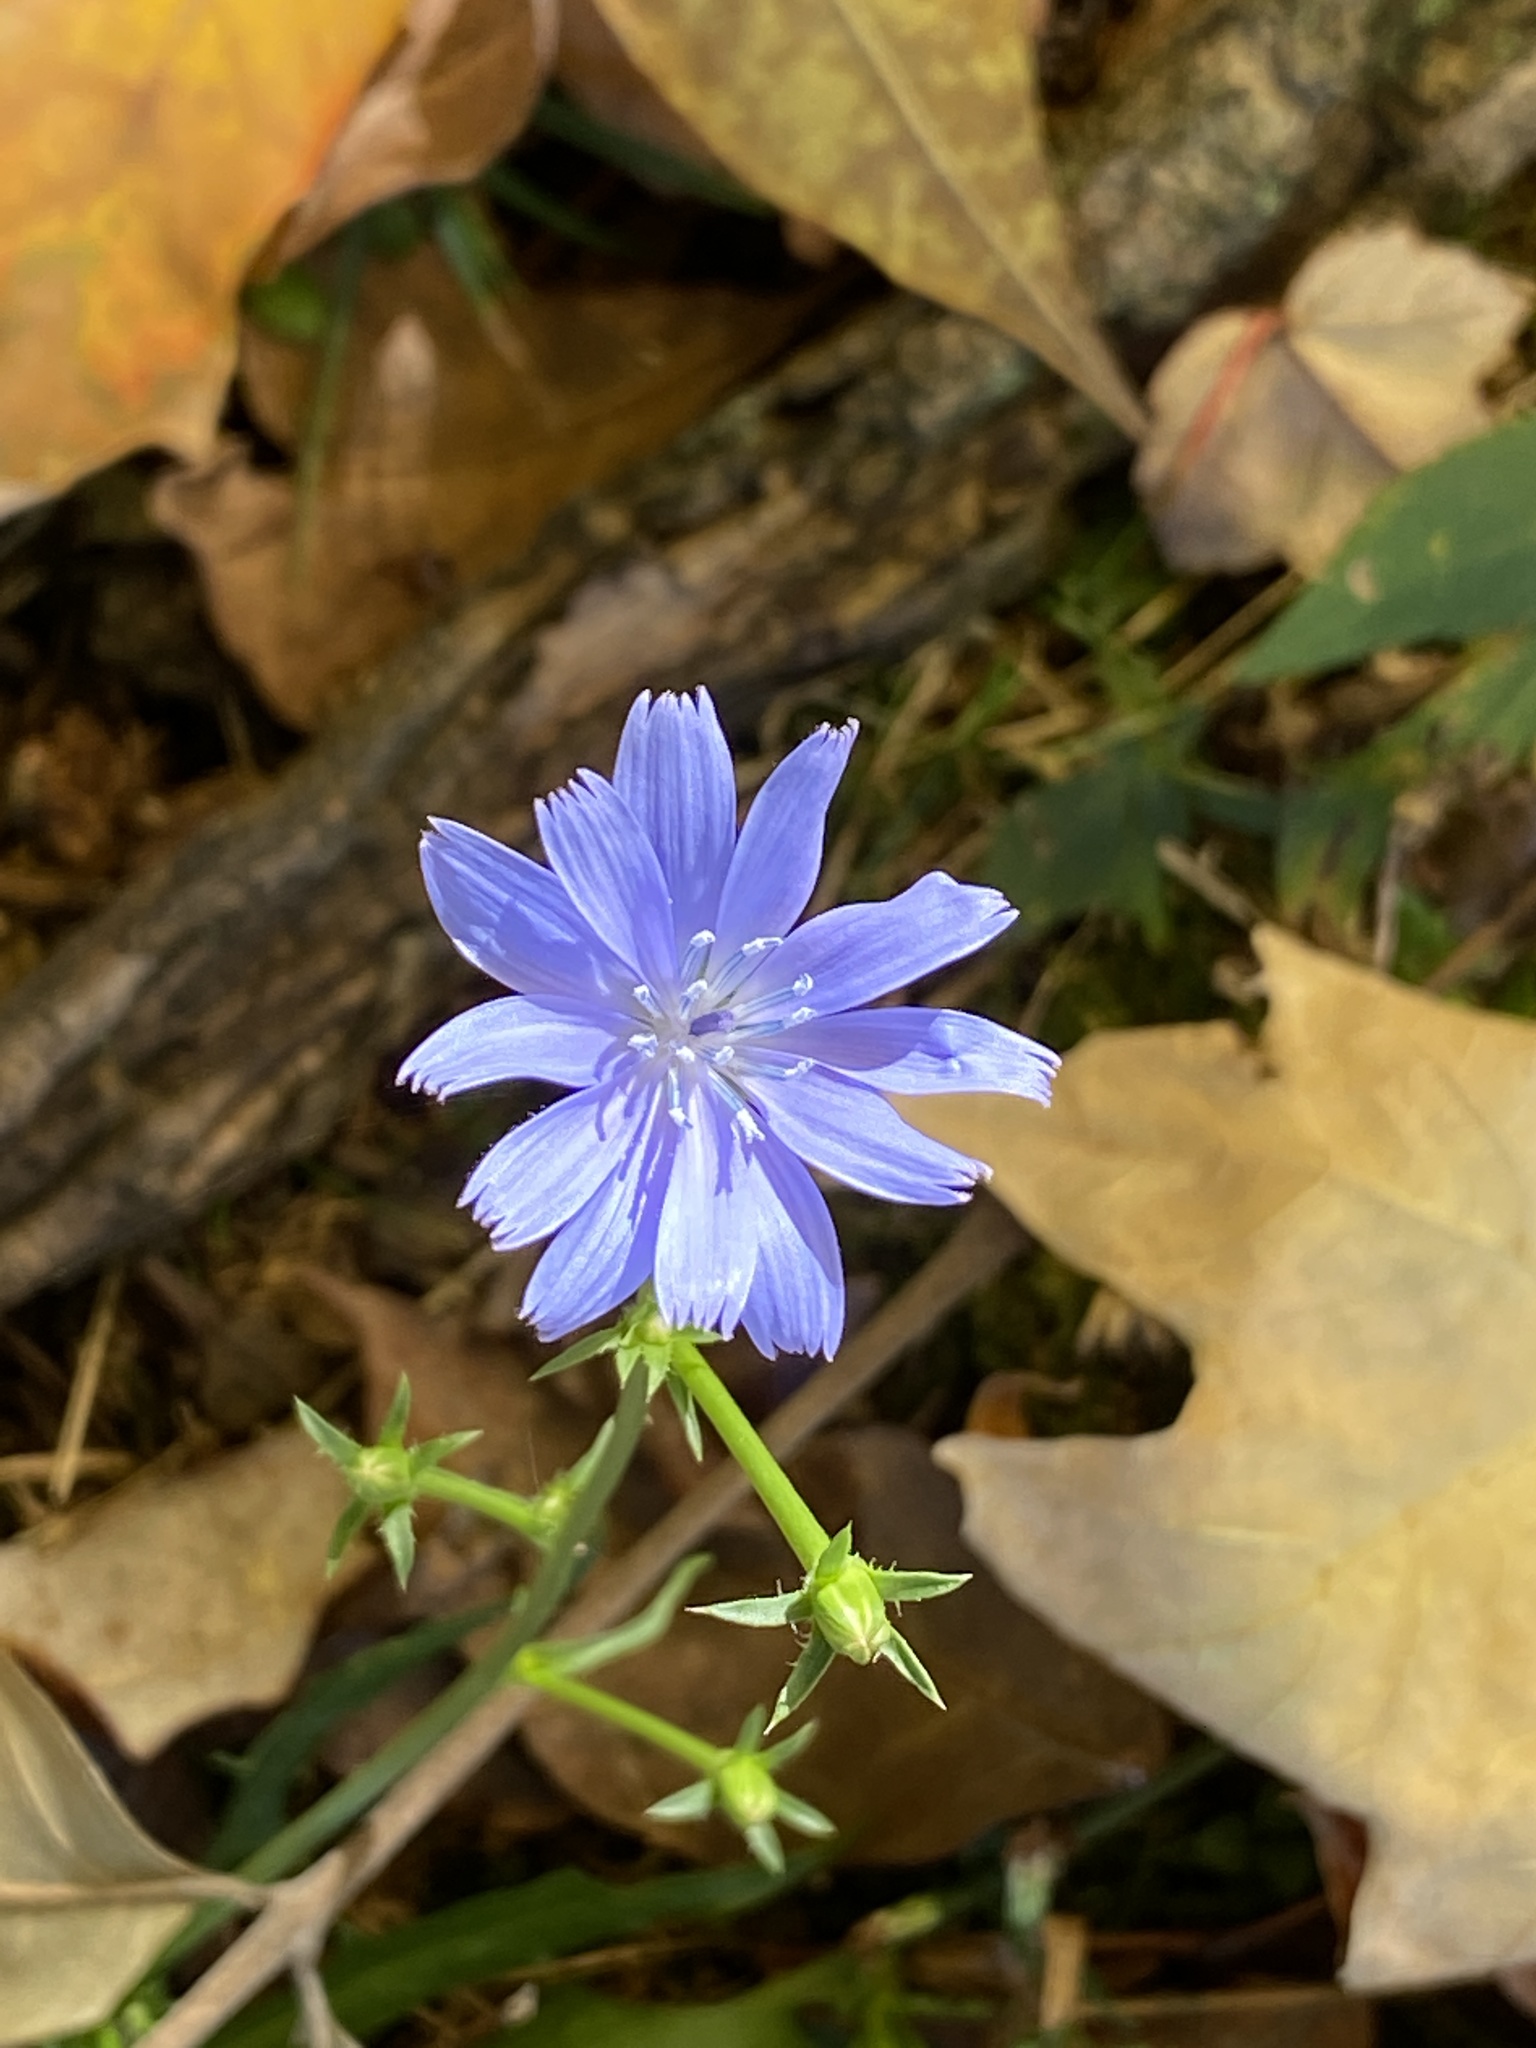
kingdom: Plantae
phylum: Tracheophyta
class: Magnoliopsida
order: Asterales
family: Asteraceae
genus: Cichorium
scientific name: Cichorium intybus
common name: Chicory
